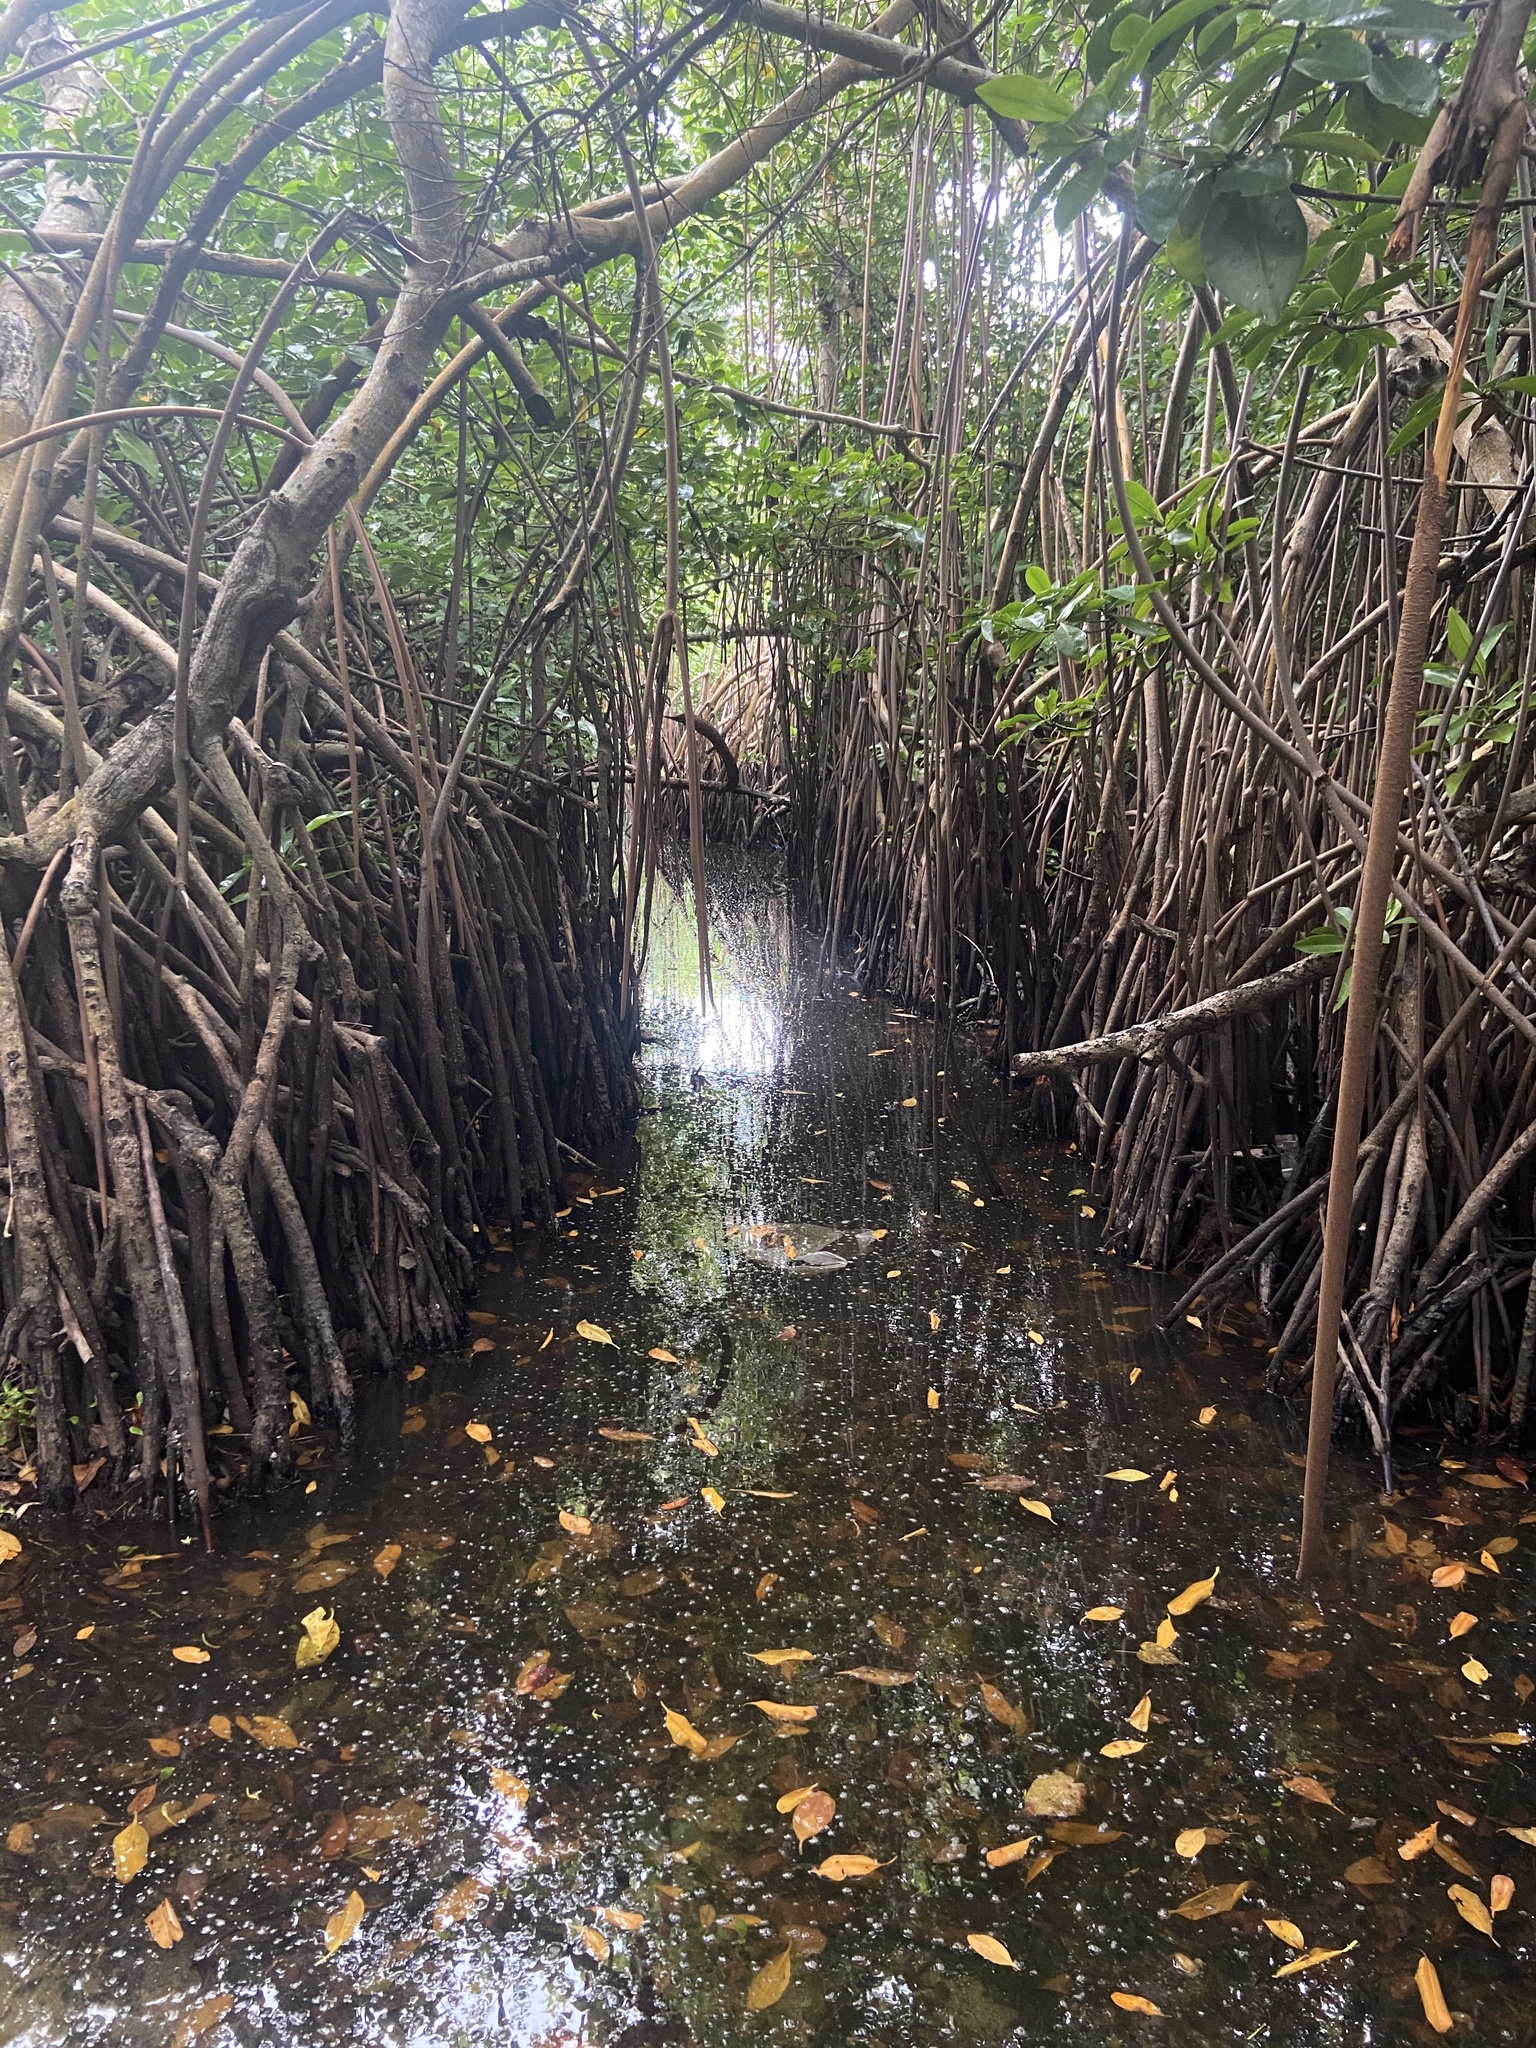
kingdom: Plantae
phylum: Tracheophyta
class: Magnoliopsida
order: Malpighiales
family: Rhizophoraceae
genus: Rhizophora
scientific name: Rhizophora mangle
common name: Red mangrove
